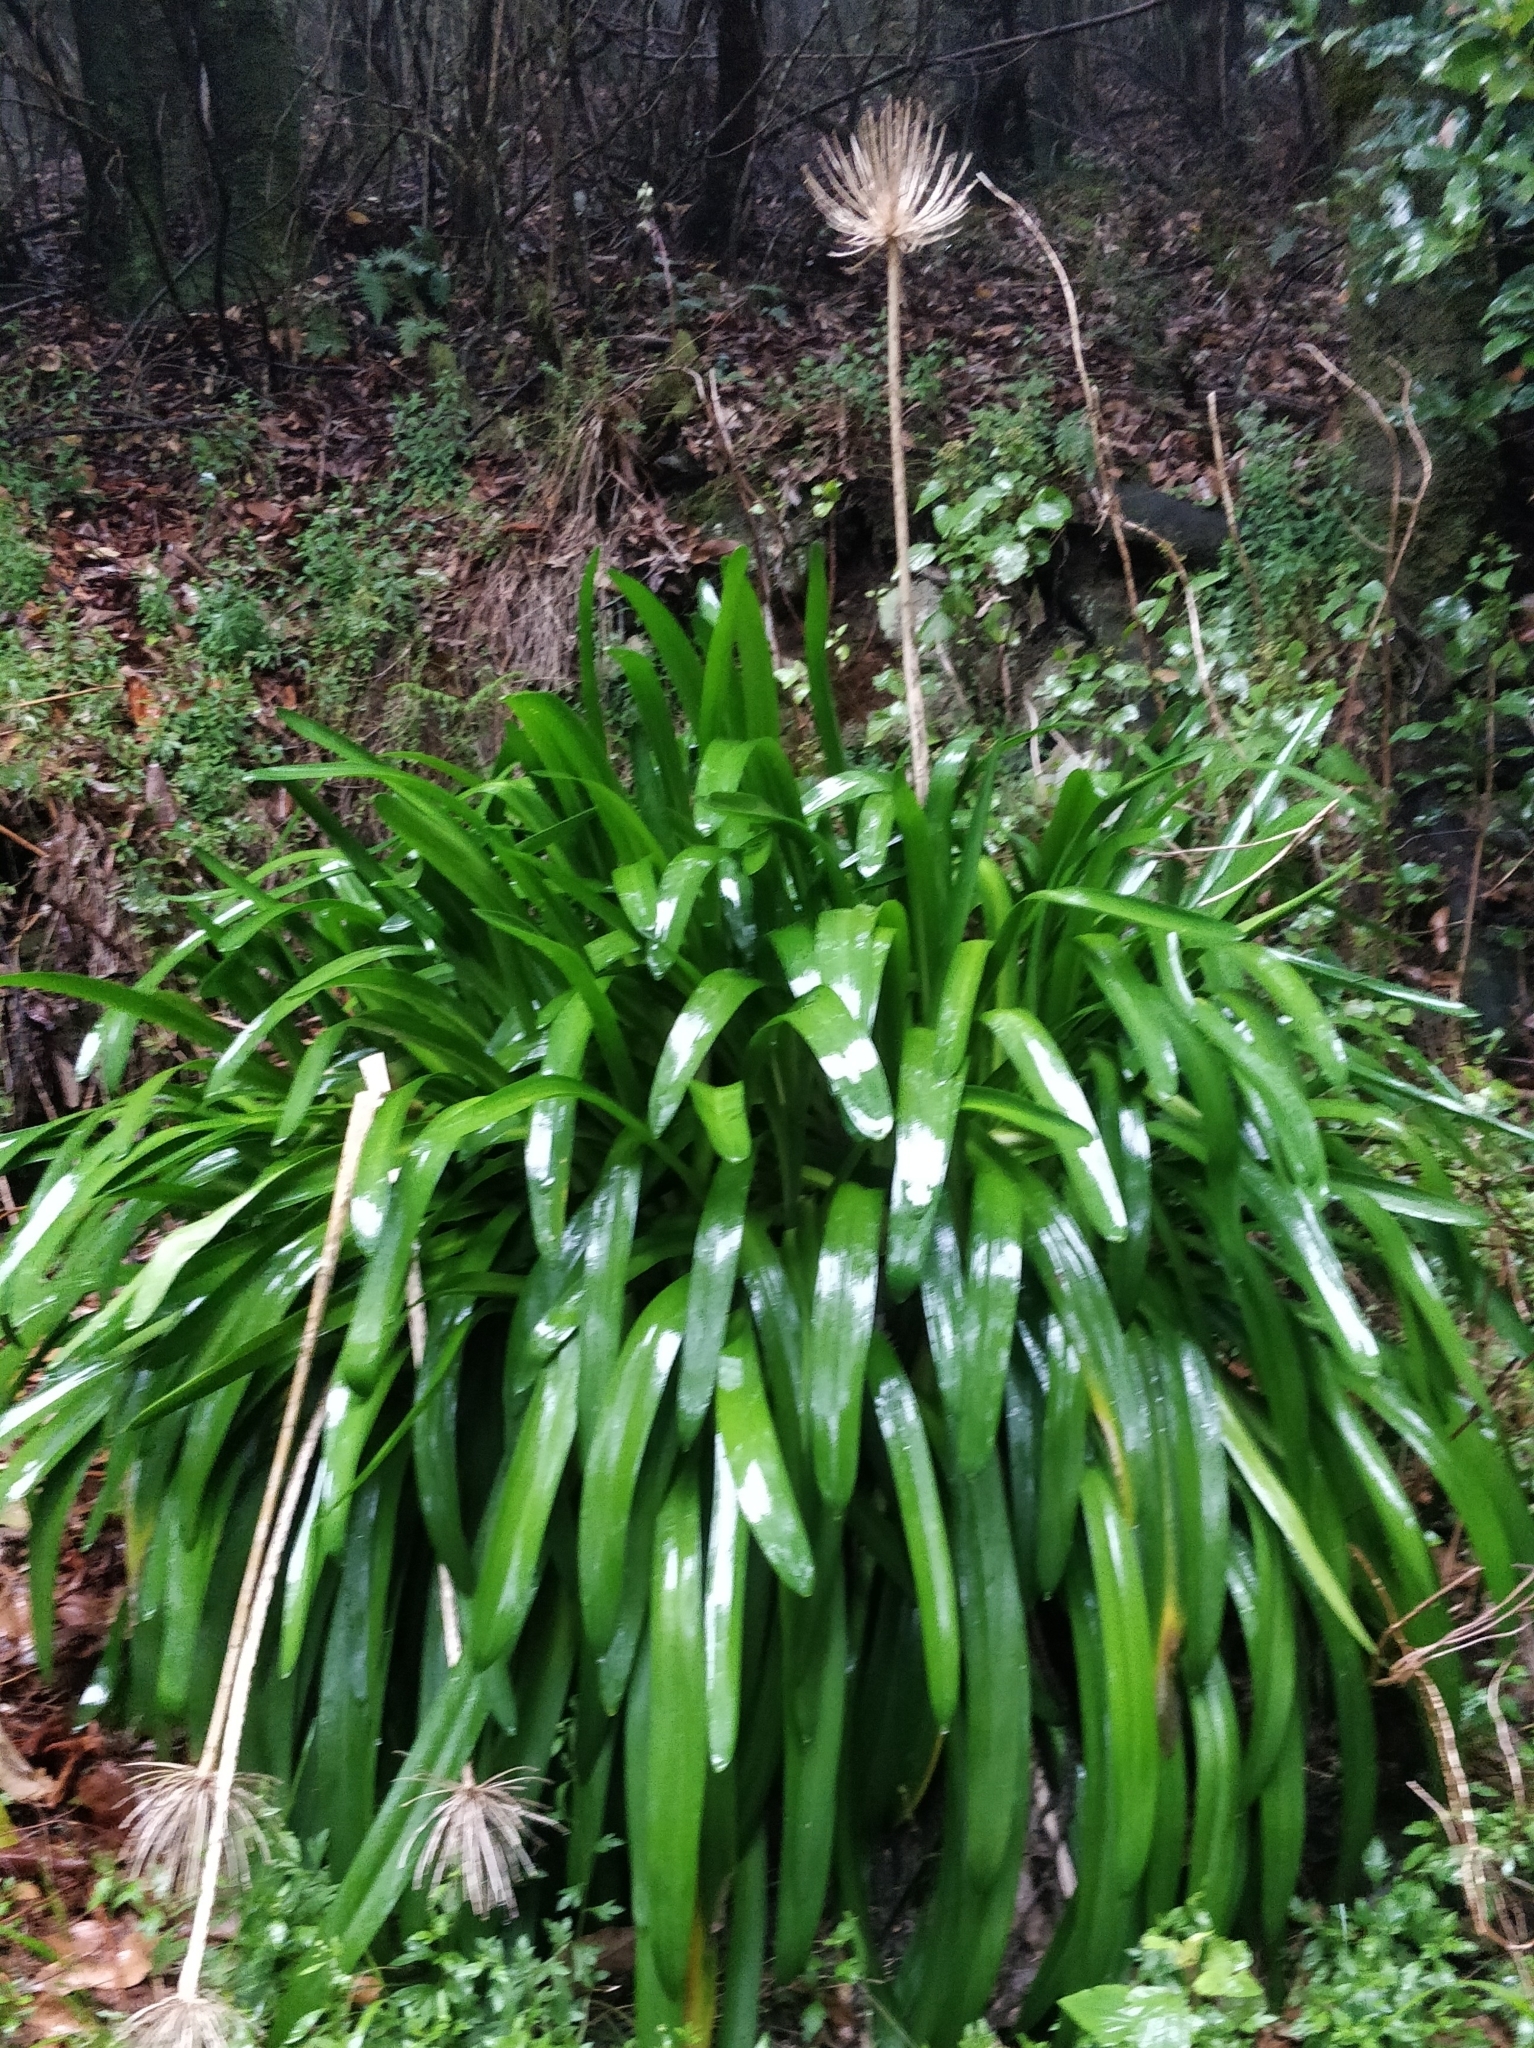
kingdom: Plantae
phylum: Tracheophyta
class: Liliopsida
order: Asparagales
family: Amaryllidaceae
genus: Agapanthus
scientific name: Agapanthus praecox
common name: African-lily
